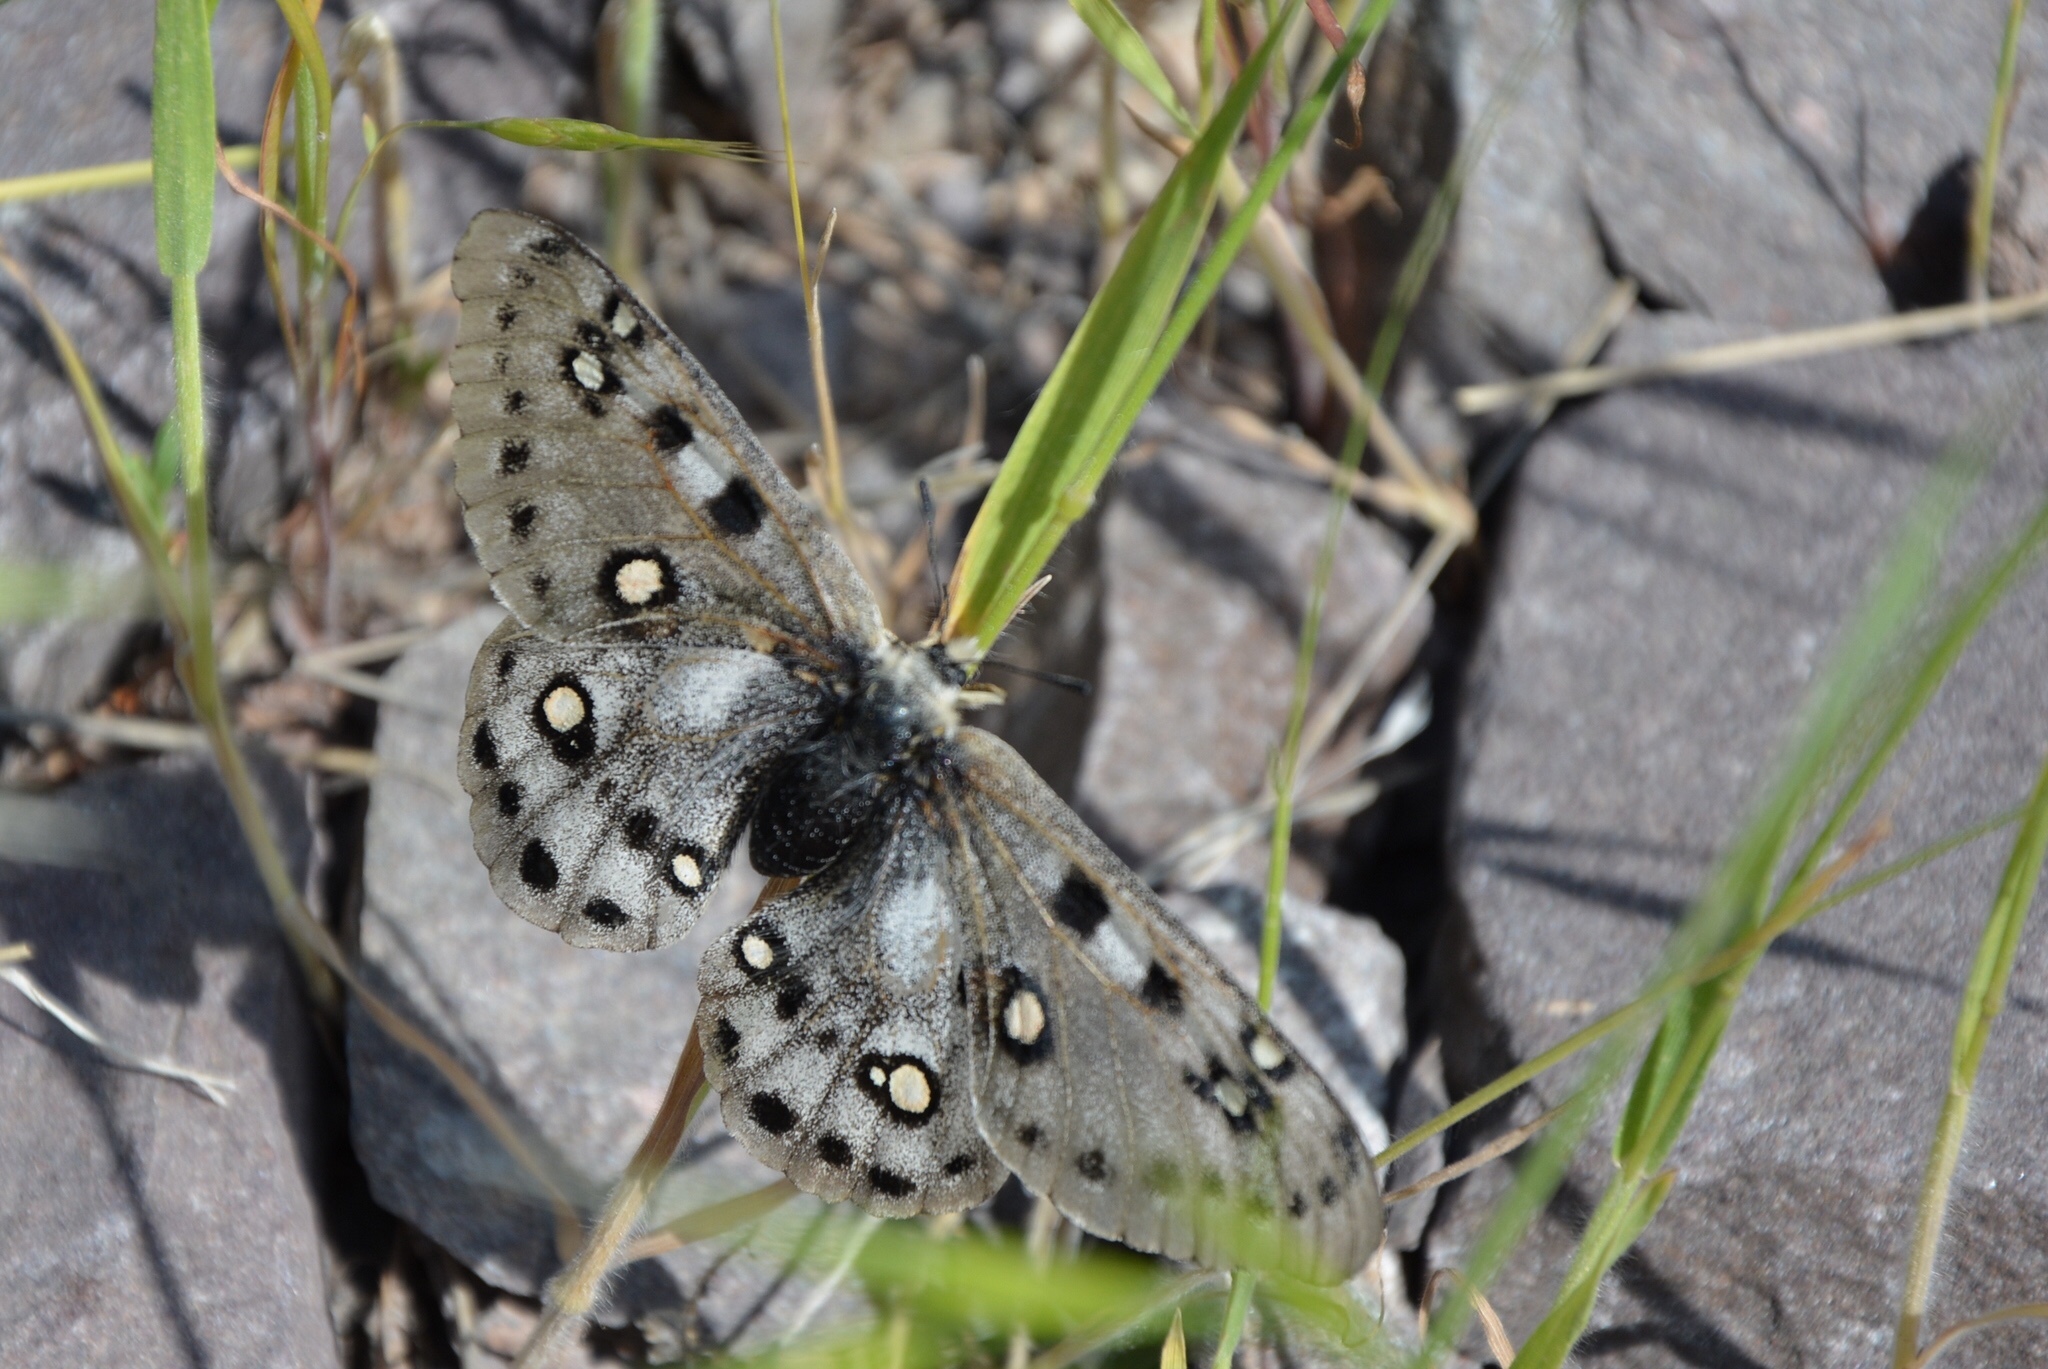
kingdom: Animalia
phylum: Arthropoda
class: Insecta
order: Lepidoptera
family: Papilionidae
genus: Parnassius
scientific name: Parnassius apollonius
